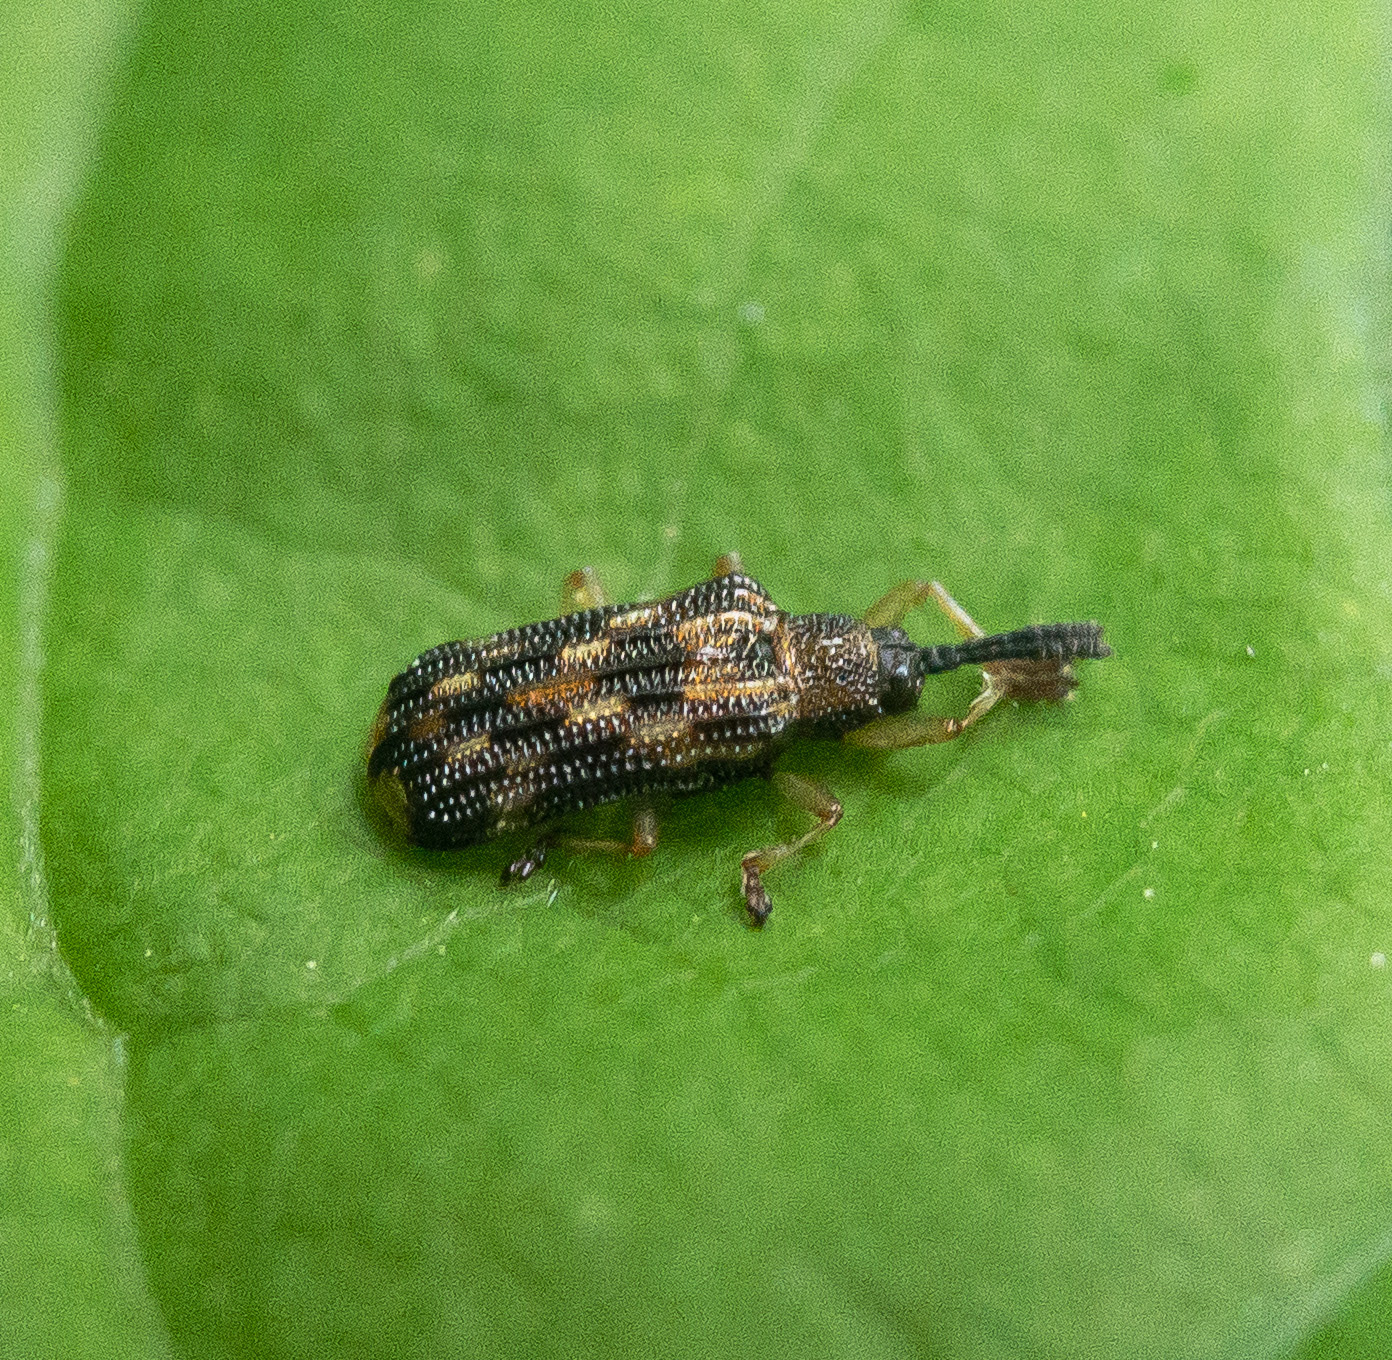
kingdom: Animalia
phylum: Arthropoda
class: Insecta
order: Coleoptera
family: Chrysomelidae
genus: Sumitrosis
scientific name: Sumitrosis inaequalis
